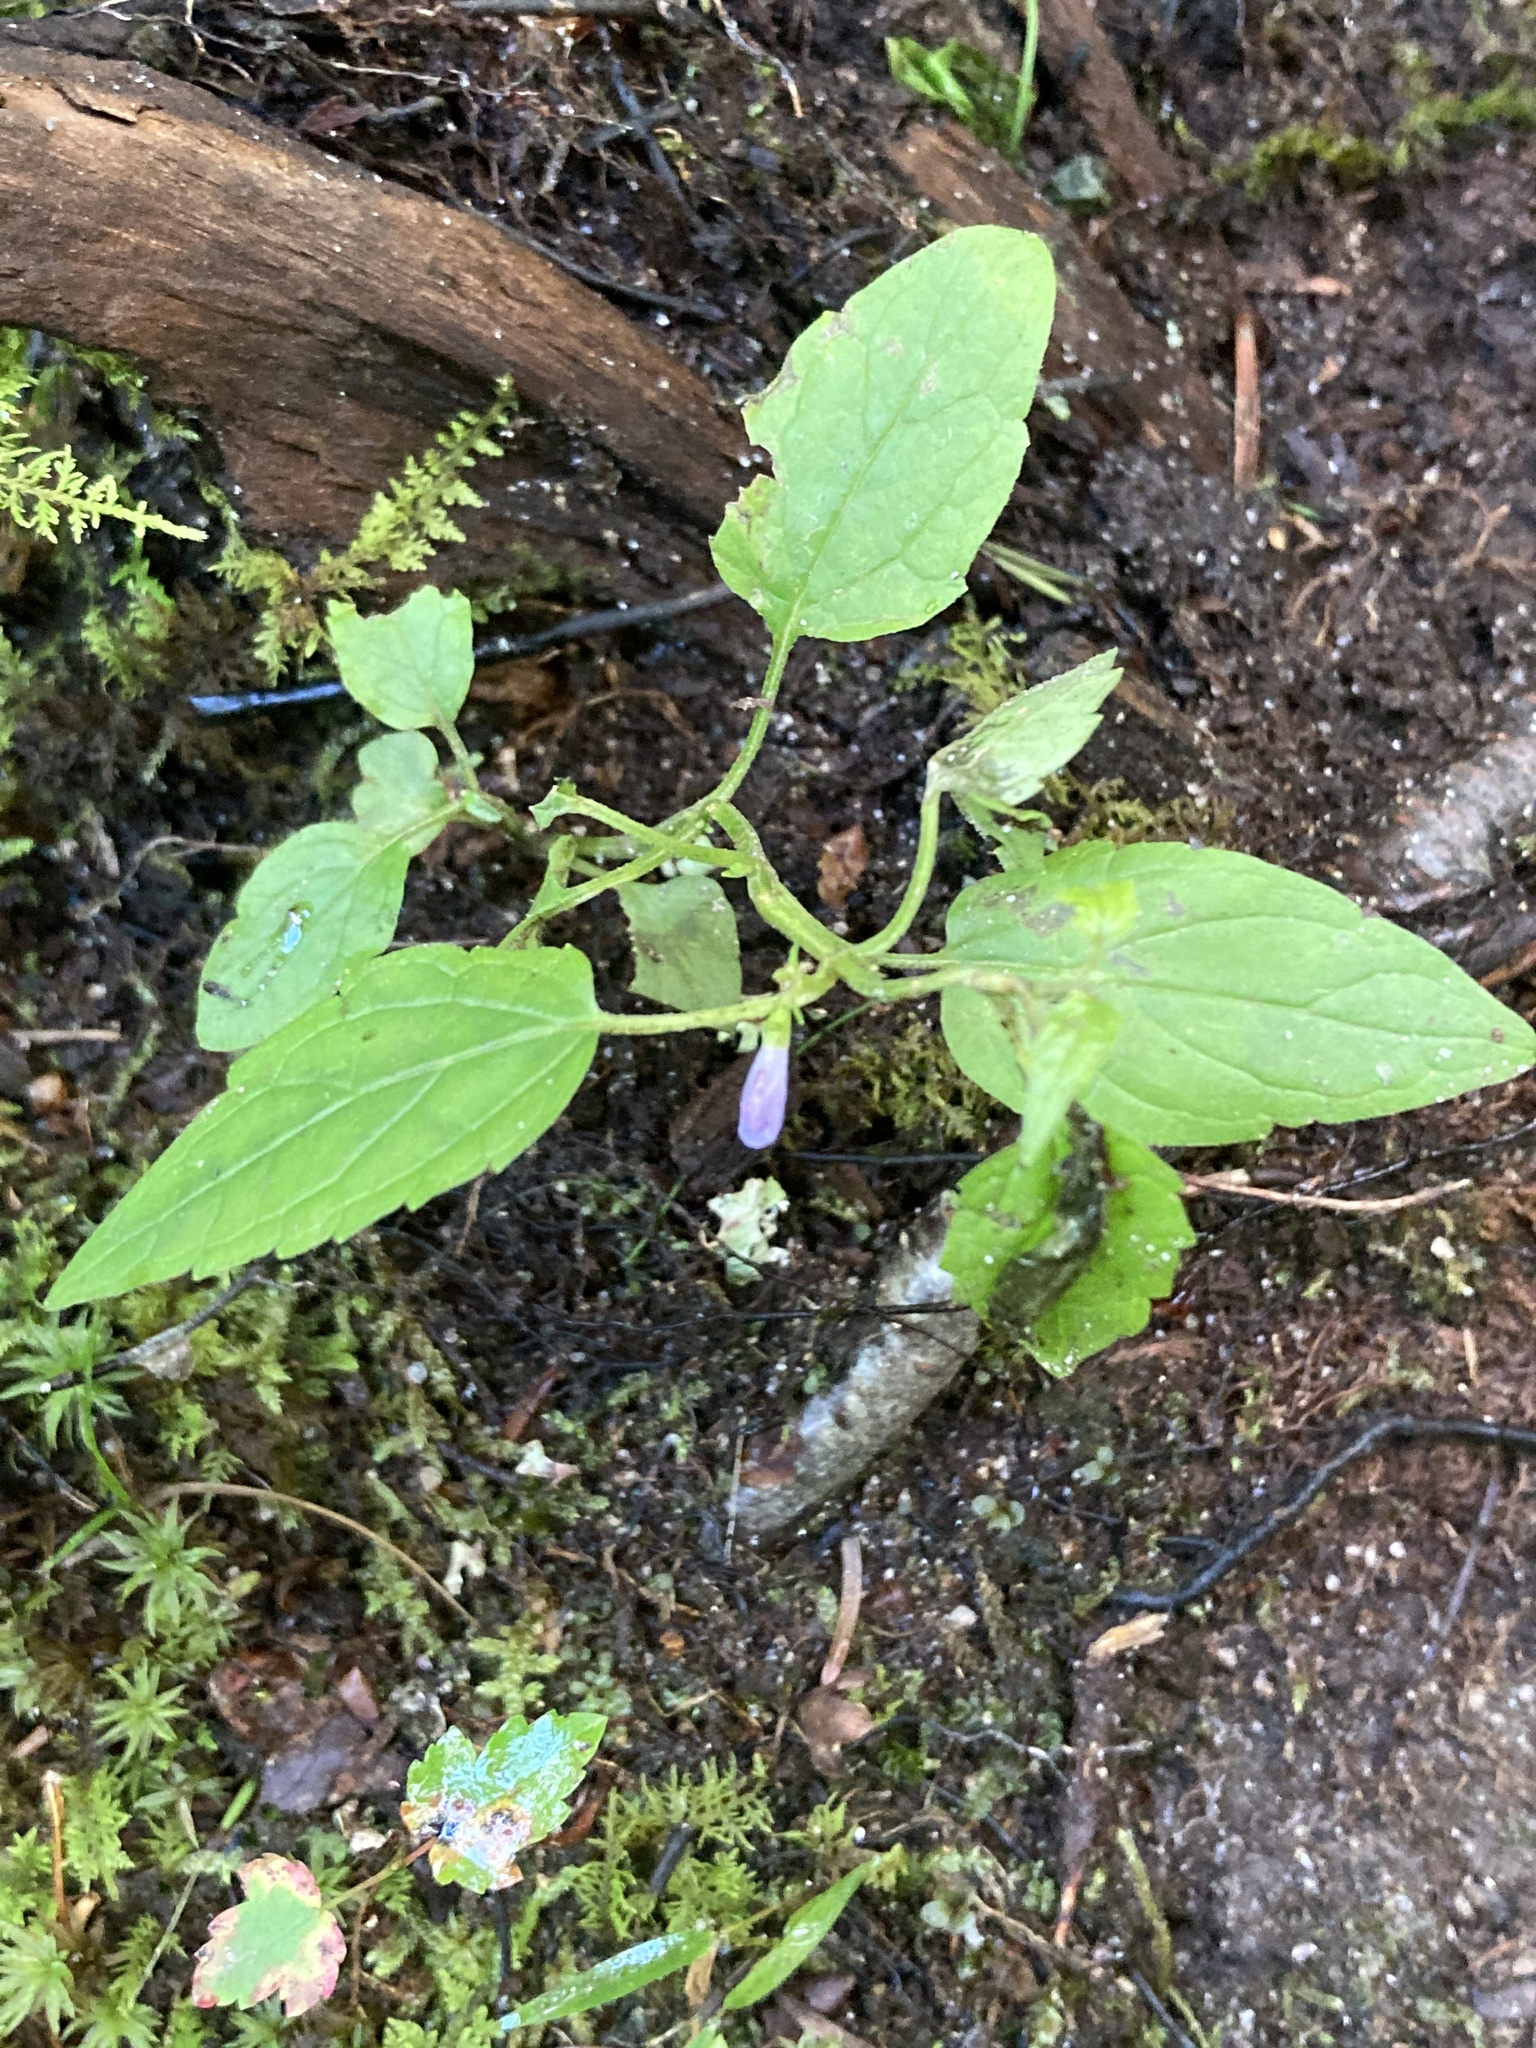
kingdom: Plantae
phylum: Tracheophyta
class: Magnoliopsida
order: Lamiales
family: Lamiaceae
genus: Scutellaria
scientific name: Scutellaria lateriflora
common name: Blue skullcap
